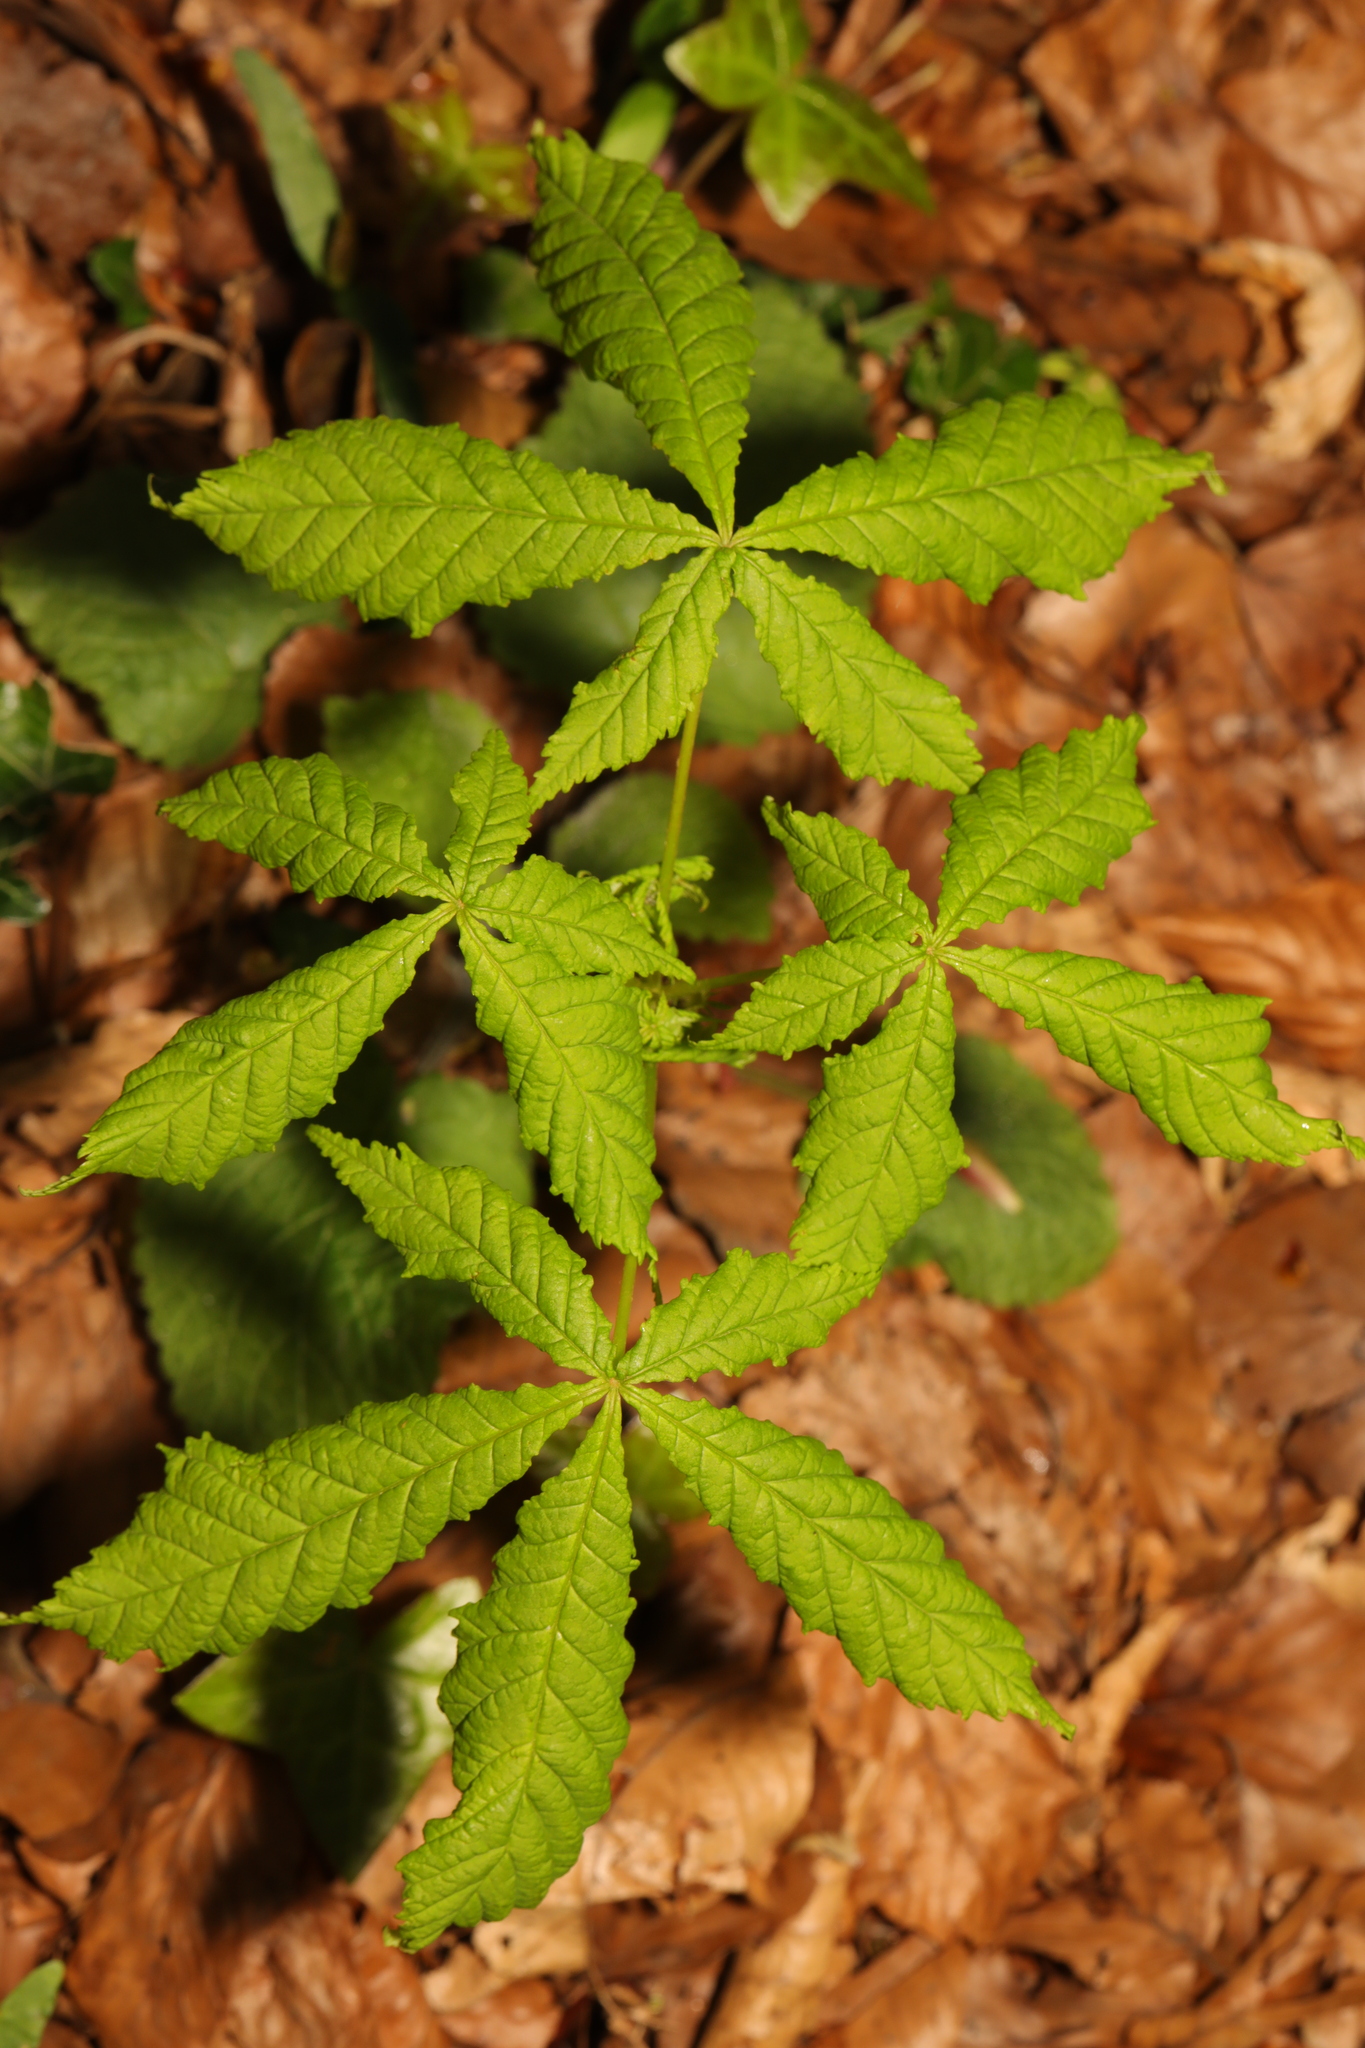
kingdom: Plantae
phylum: Tracheophyta
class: Magnoliopsida
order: Sapindales
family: Sapindaceae
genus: Aesculus
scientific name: Aesculus hippocastanum
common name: Horse-chestnut
